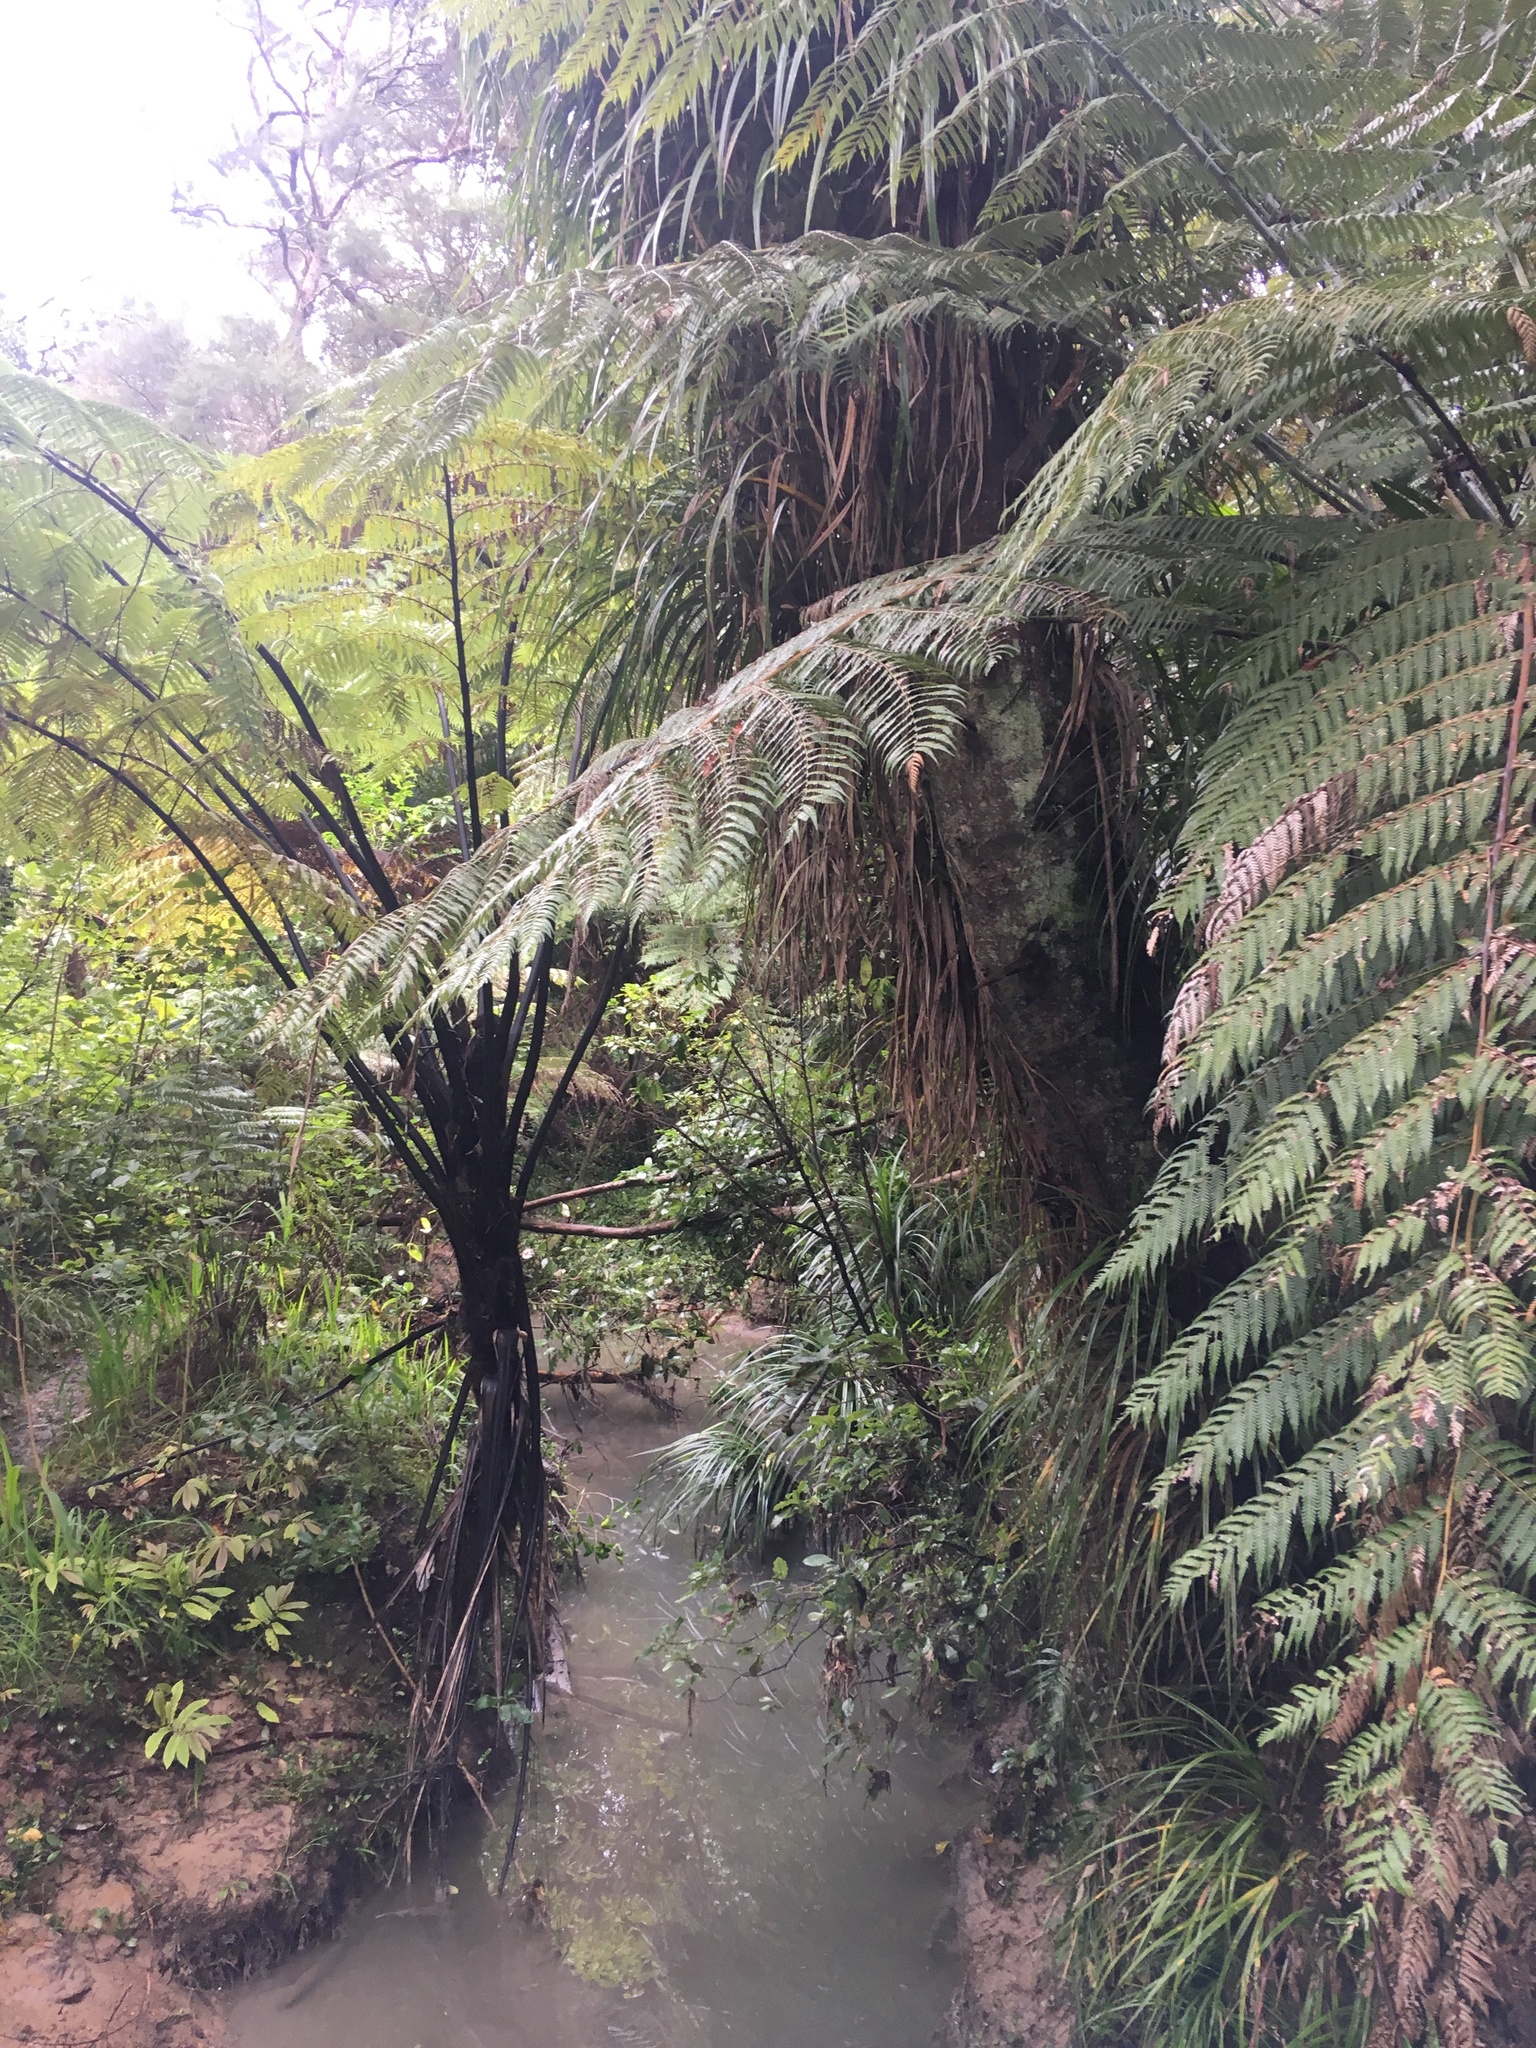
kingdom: Plantae
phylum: Tracheophyta
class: Polypodiopsida
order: Cyatheales
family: Cyatheaceae
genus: Sphaeropteris
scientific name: Sphaeropteris medullaris
